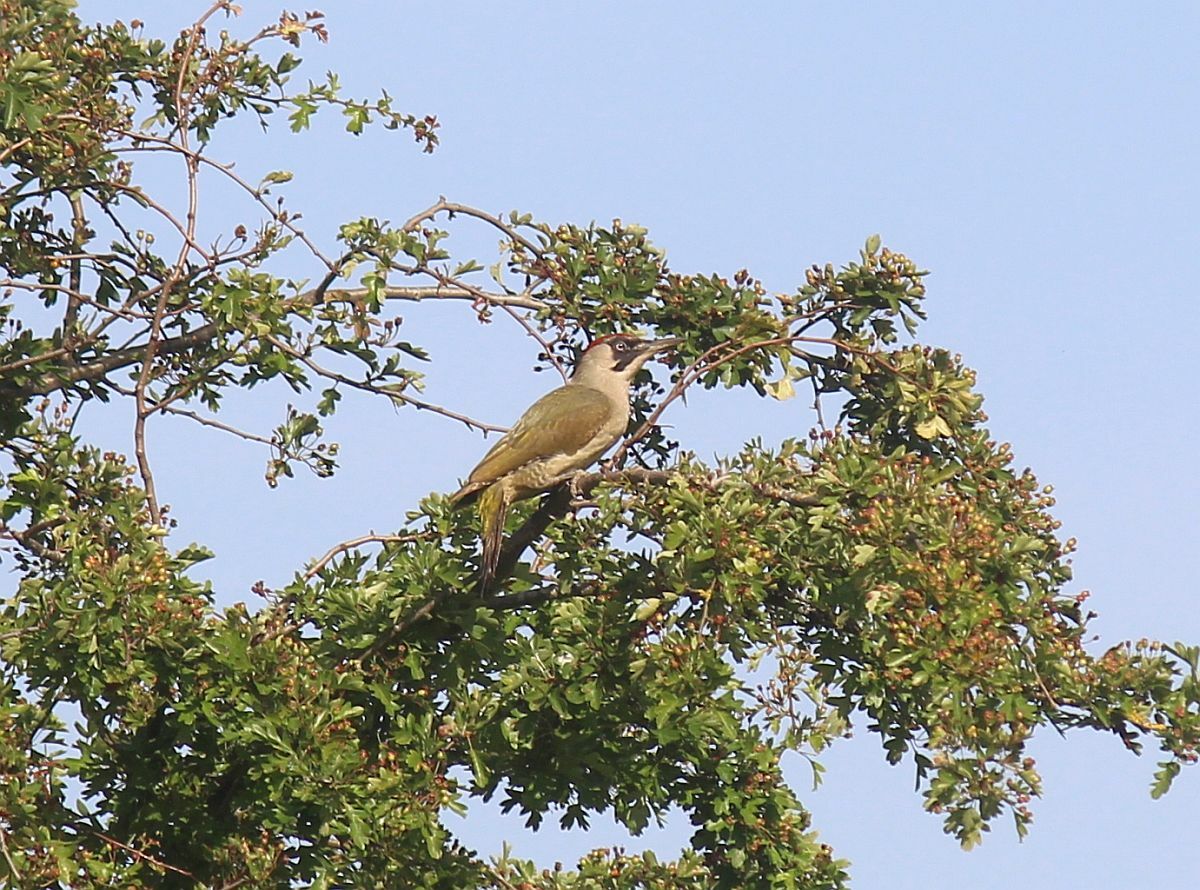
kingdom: Animalia
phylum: Chordata
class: Aves
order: Piciformes
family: Picidae
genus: Picus
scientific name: Picus viridis
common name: European green woodpecker
